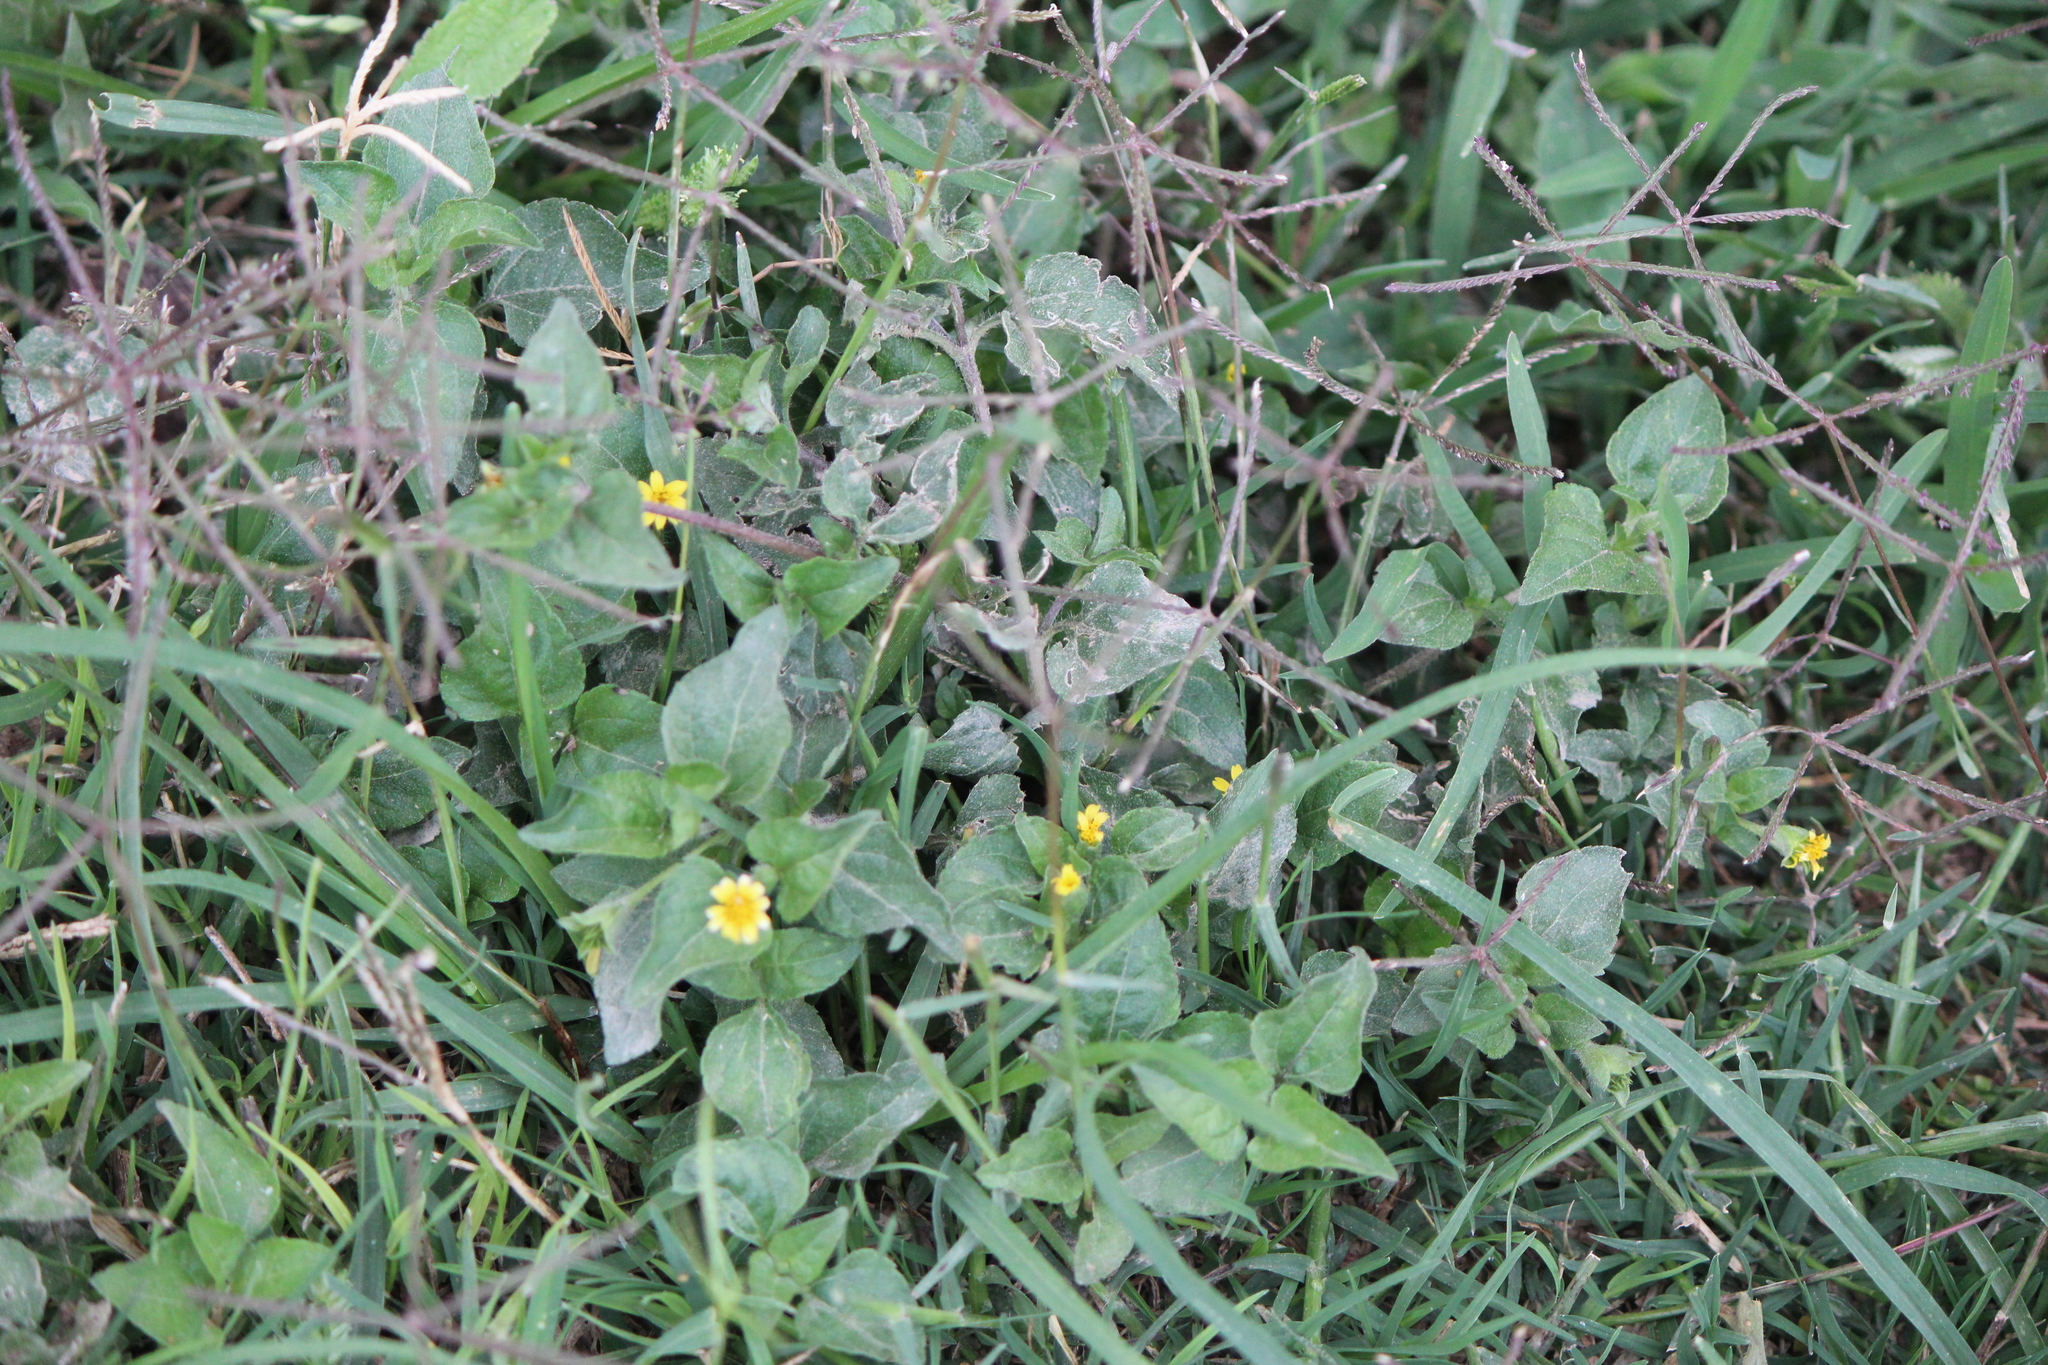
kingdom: Plantae
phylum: Tracheophyta
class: Magnoliopsida
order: Asterales
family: Asteraceae
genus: Calyptocarpus
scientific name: Calyptocarpus vialis
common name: Straggler daisy
